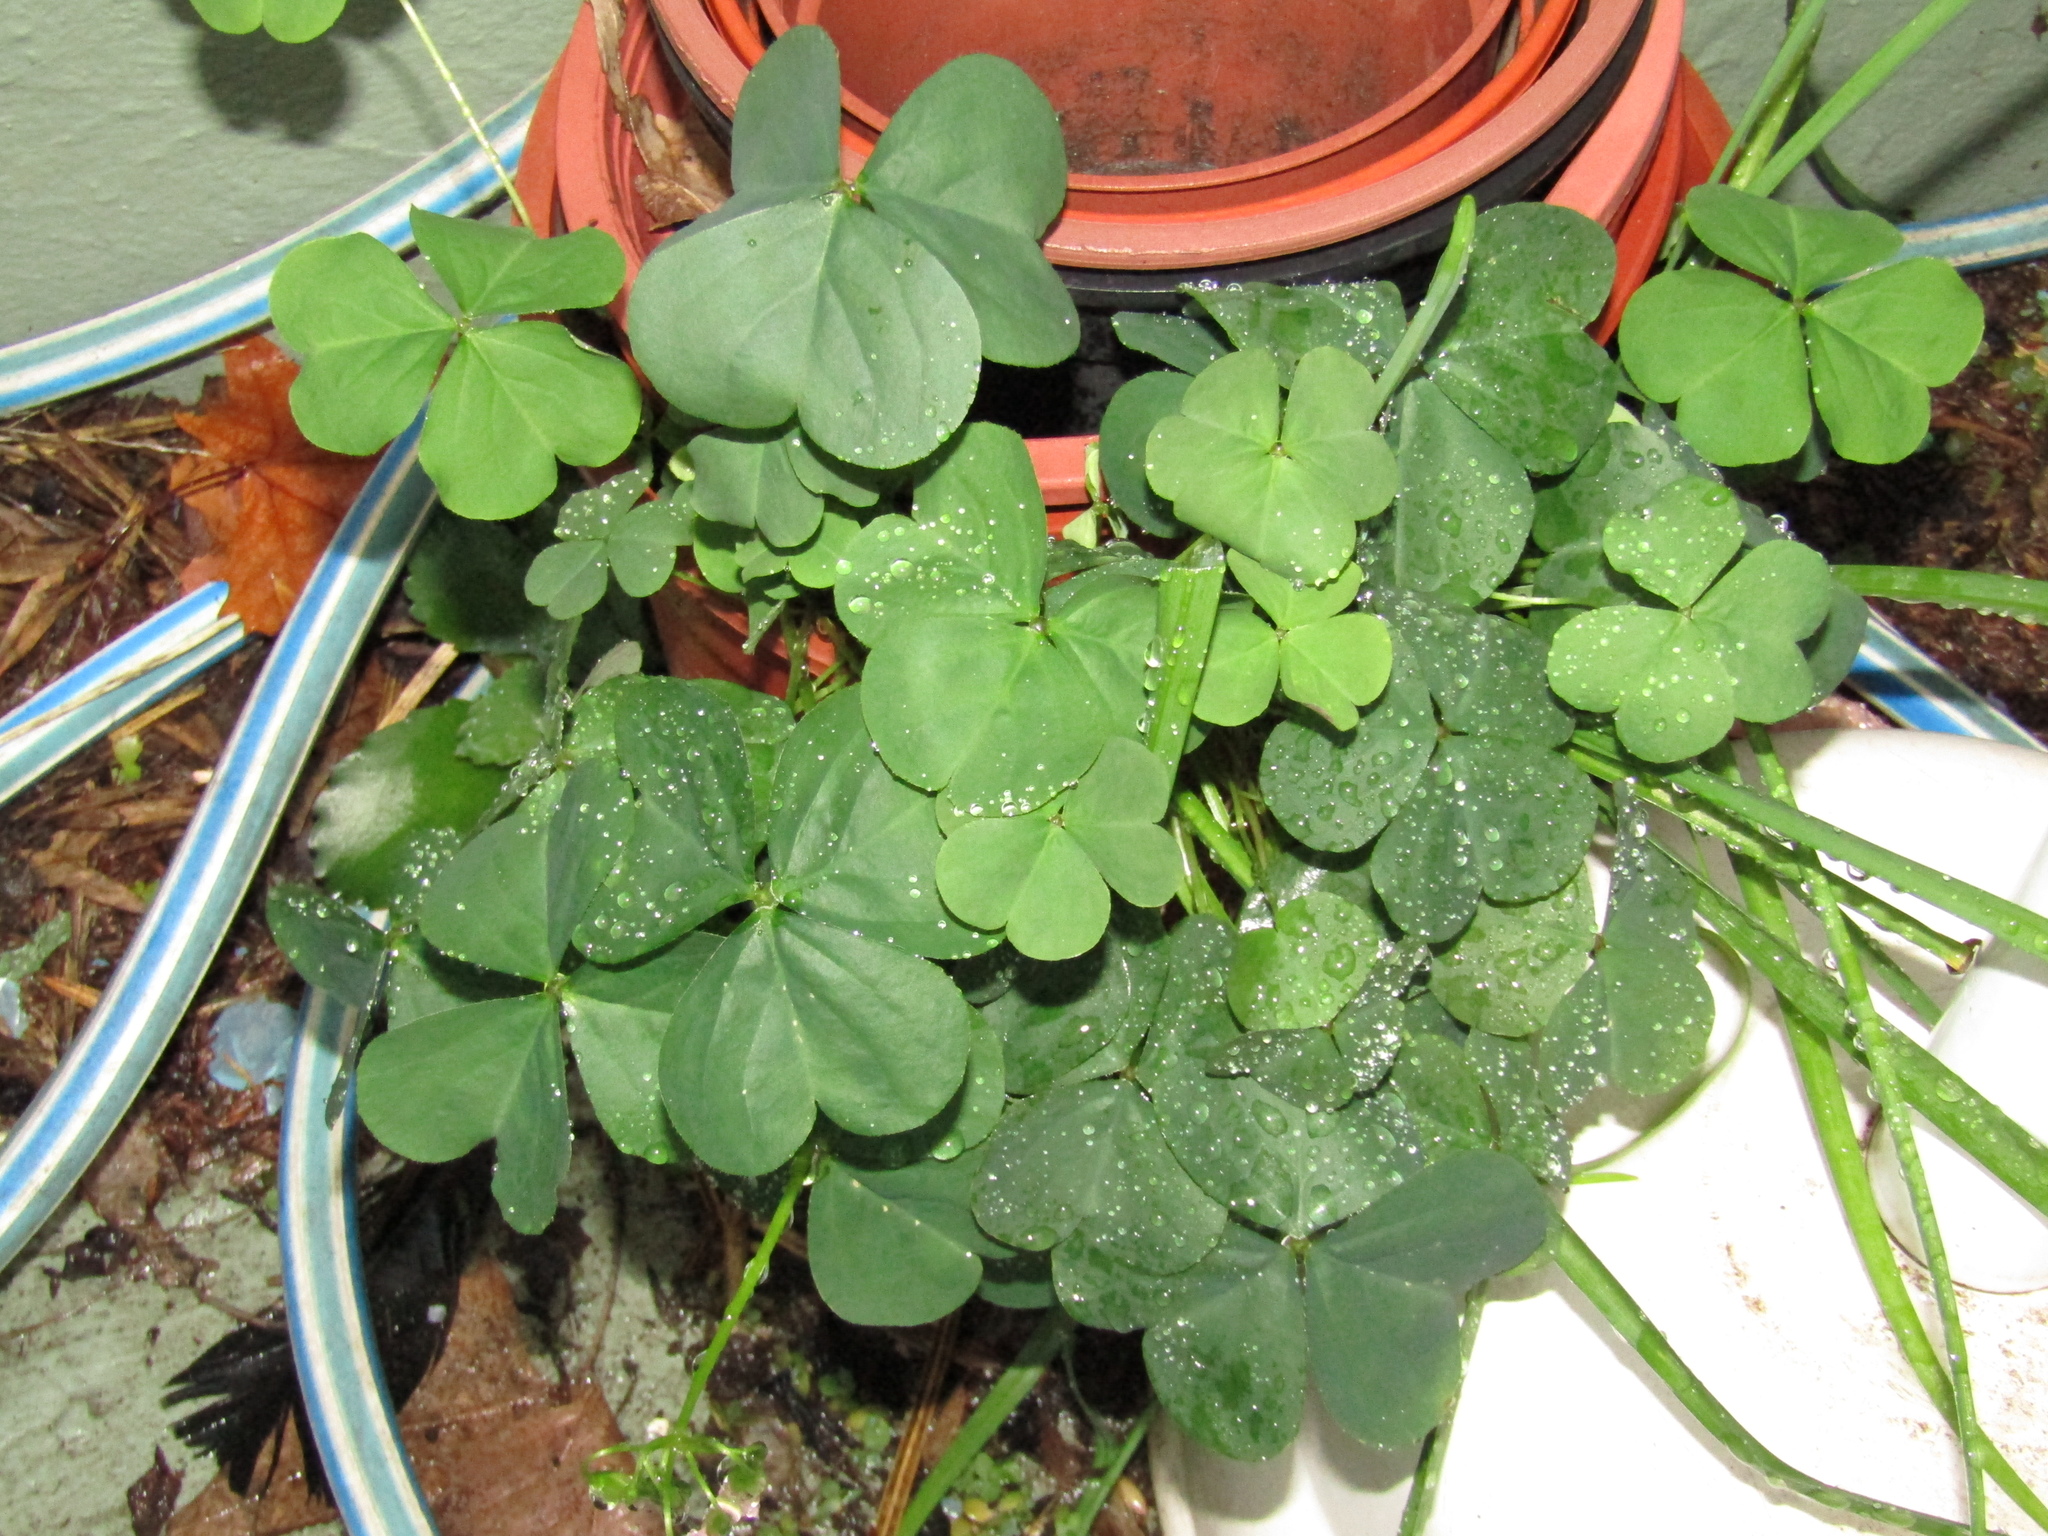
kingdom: Plantae
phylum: Tracheophyta
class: Magnoliopsida
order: Oxalidales
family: Oxalidaceae
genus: Oxalis
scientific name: Oxalis debilis
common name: Large-flowered pink-sorrel
